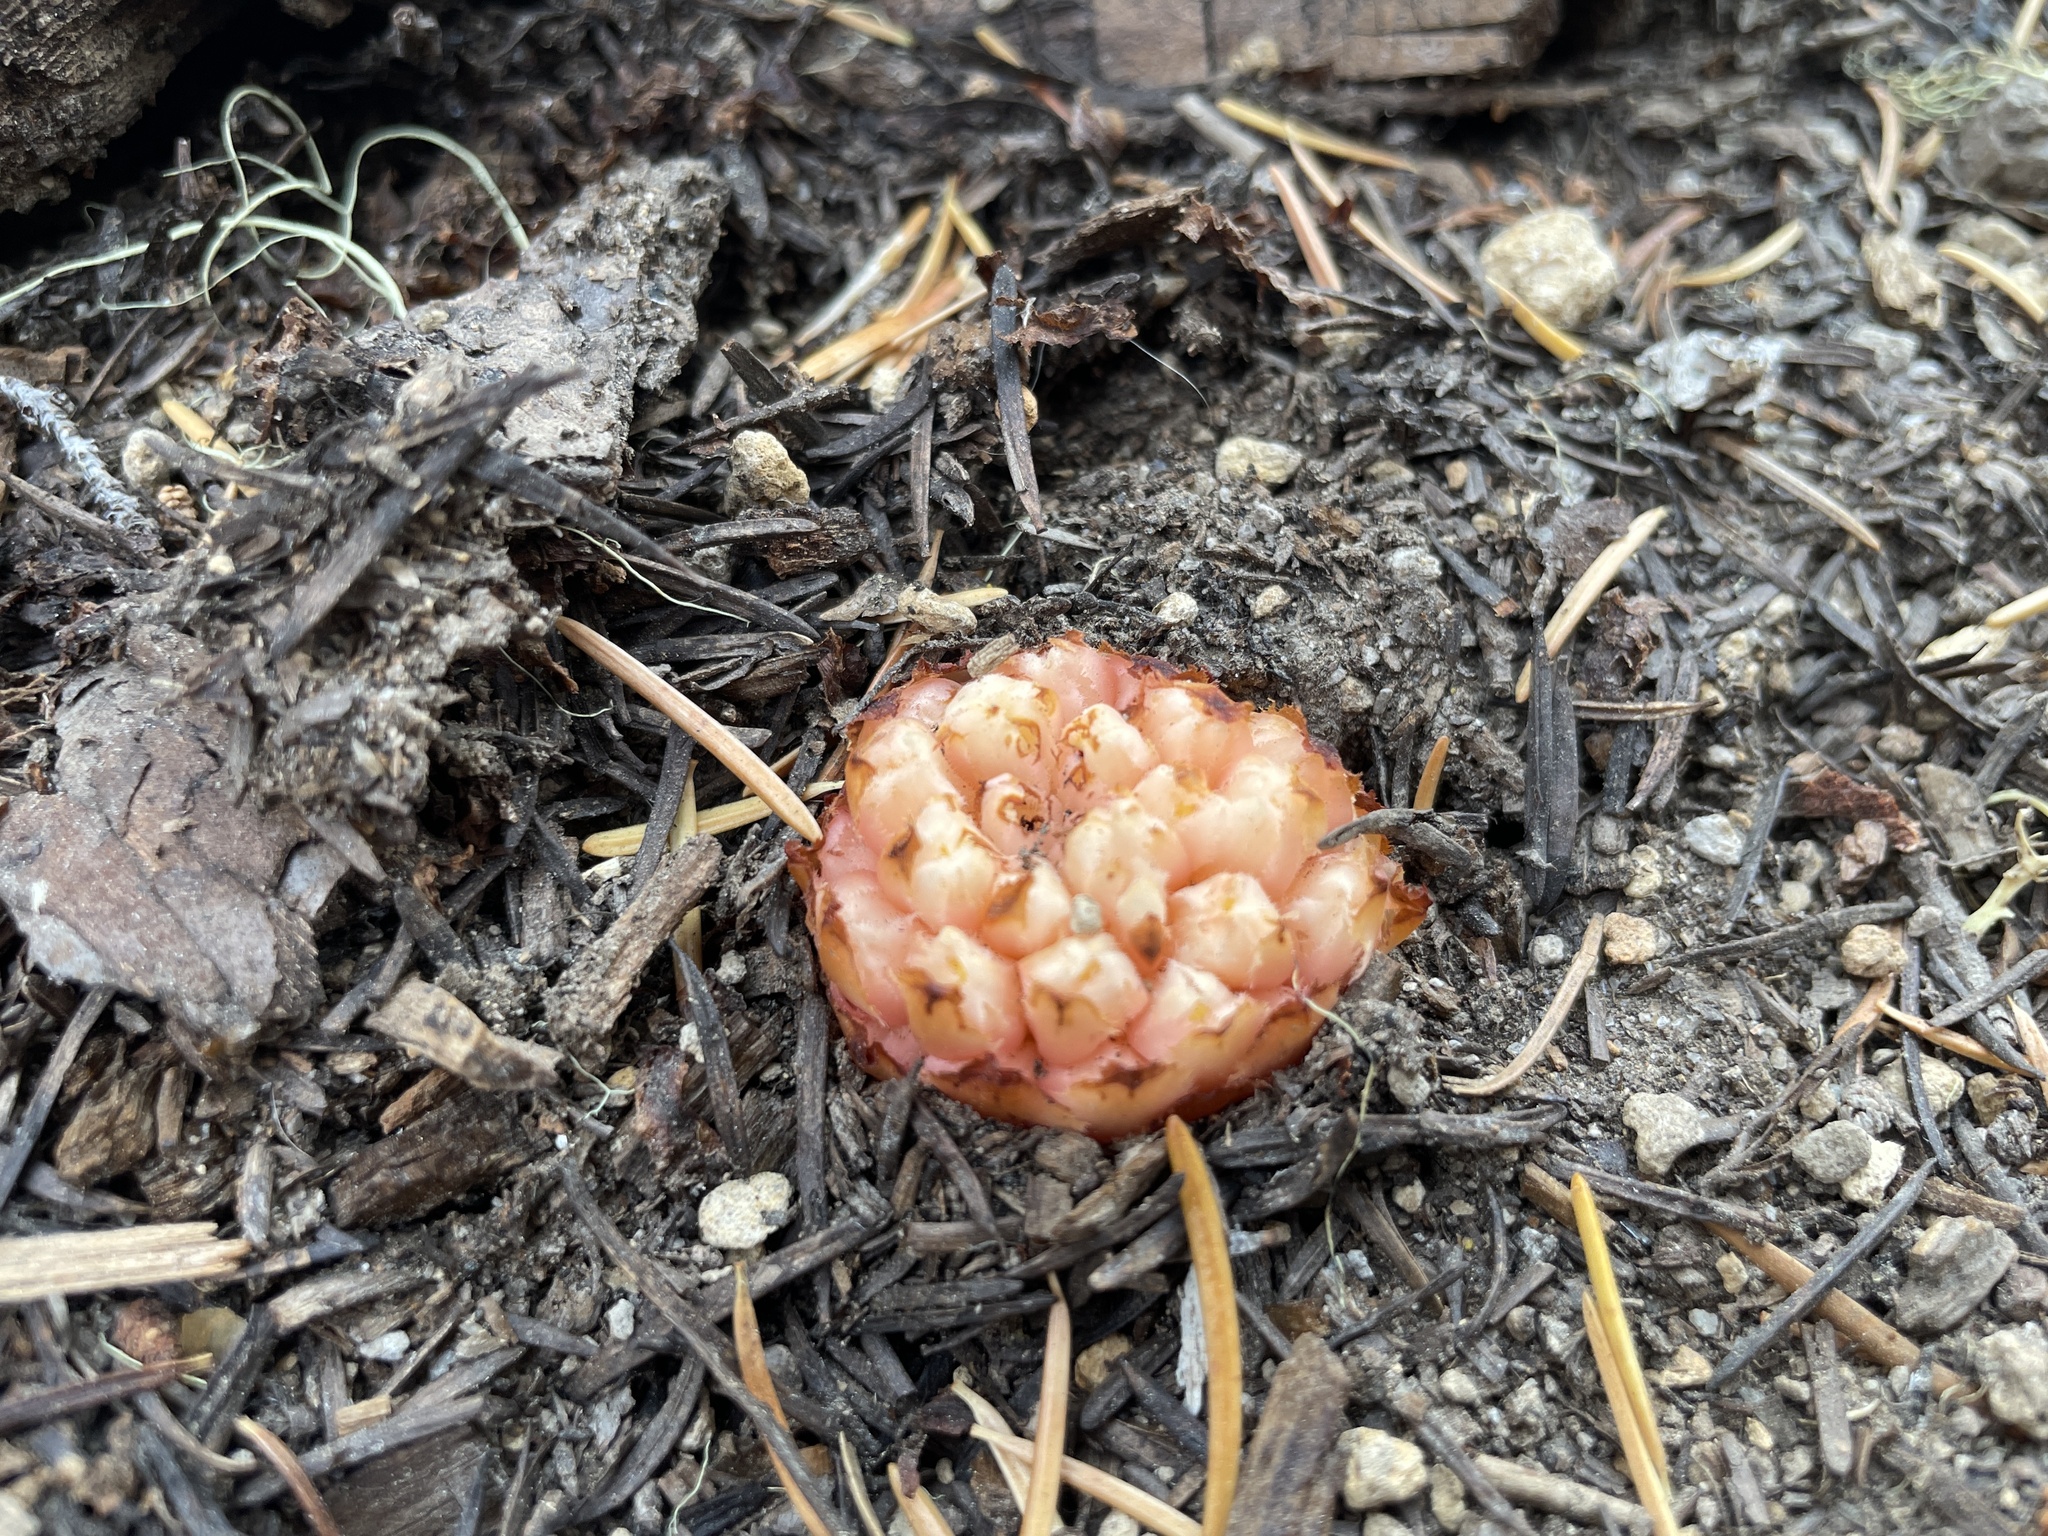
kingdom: Plantae
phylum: Tracheophyta
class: Magnoliopsida
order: Ericales
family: Ericaceae
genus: Hemitomes
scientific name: Hemitomes congestum
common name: Cone plant
